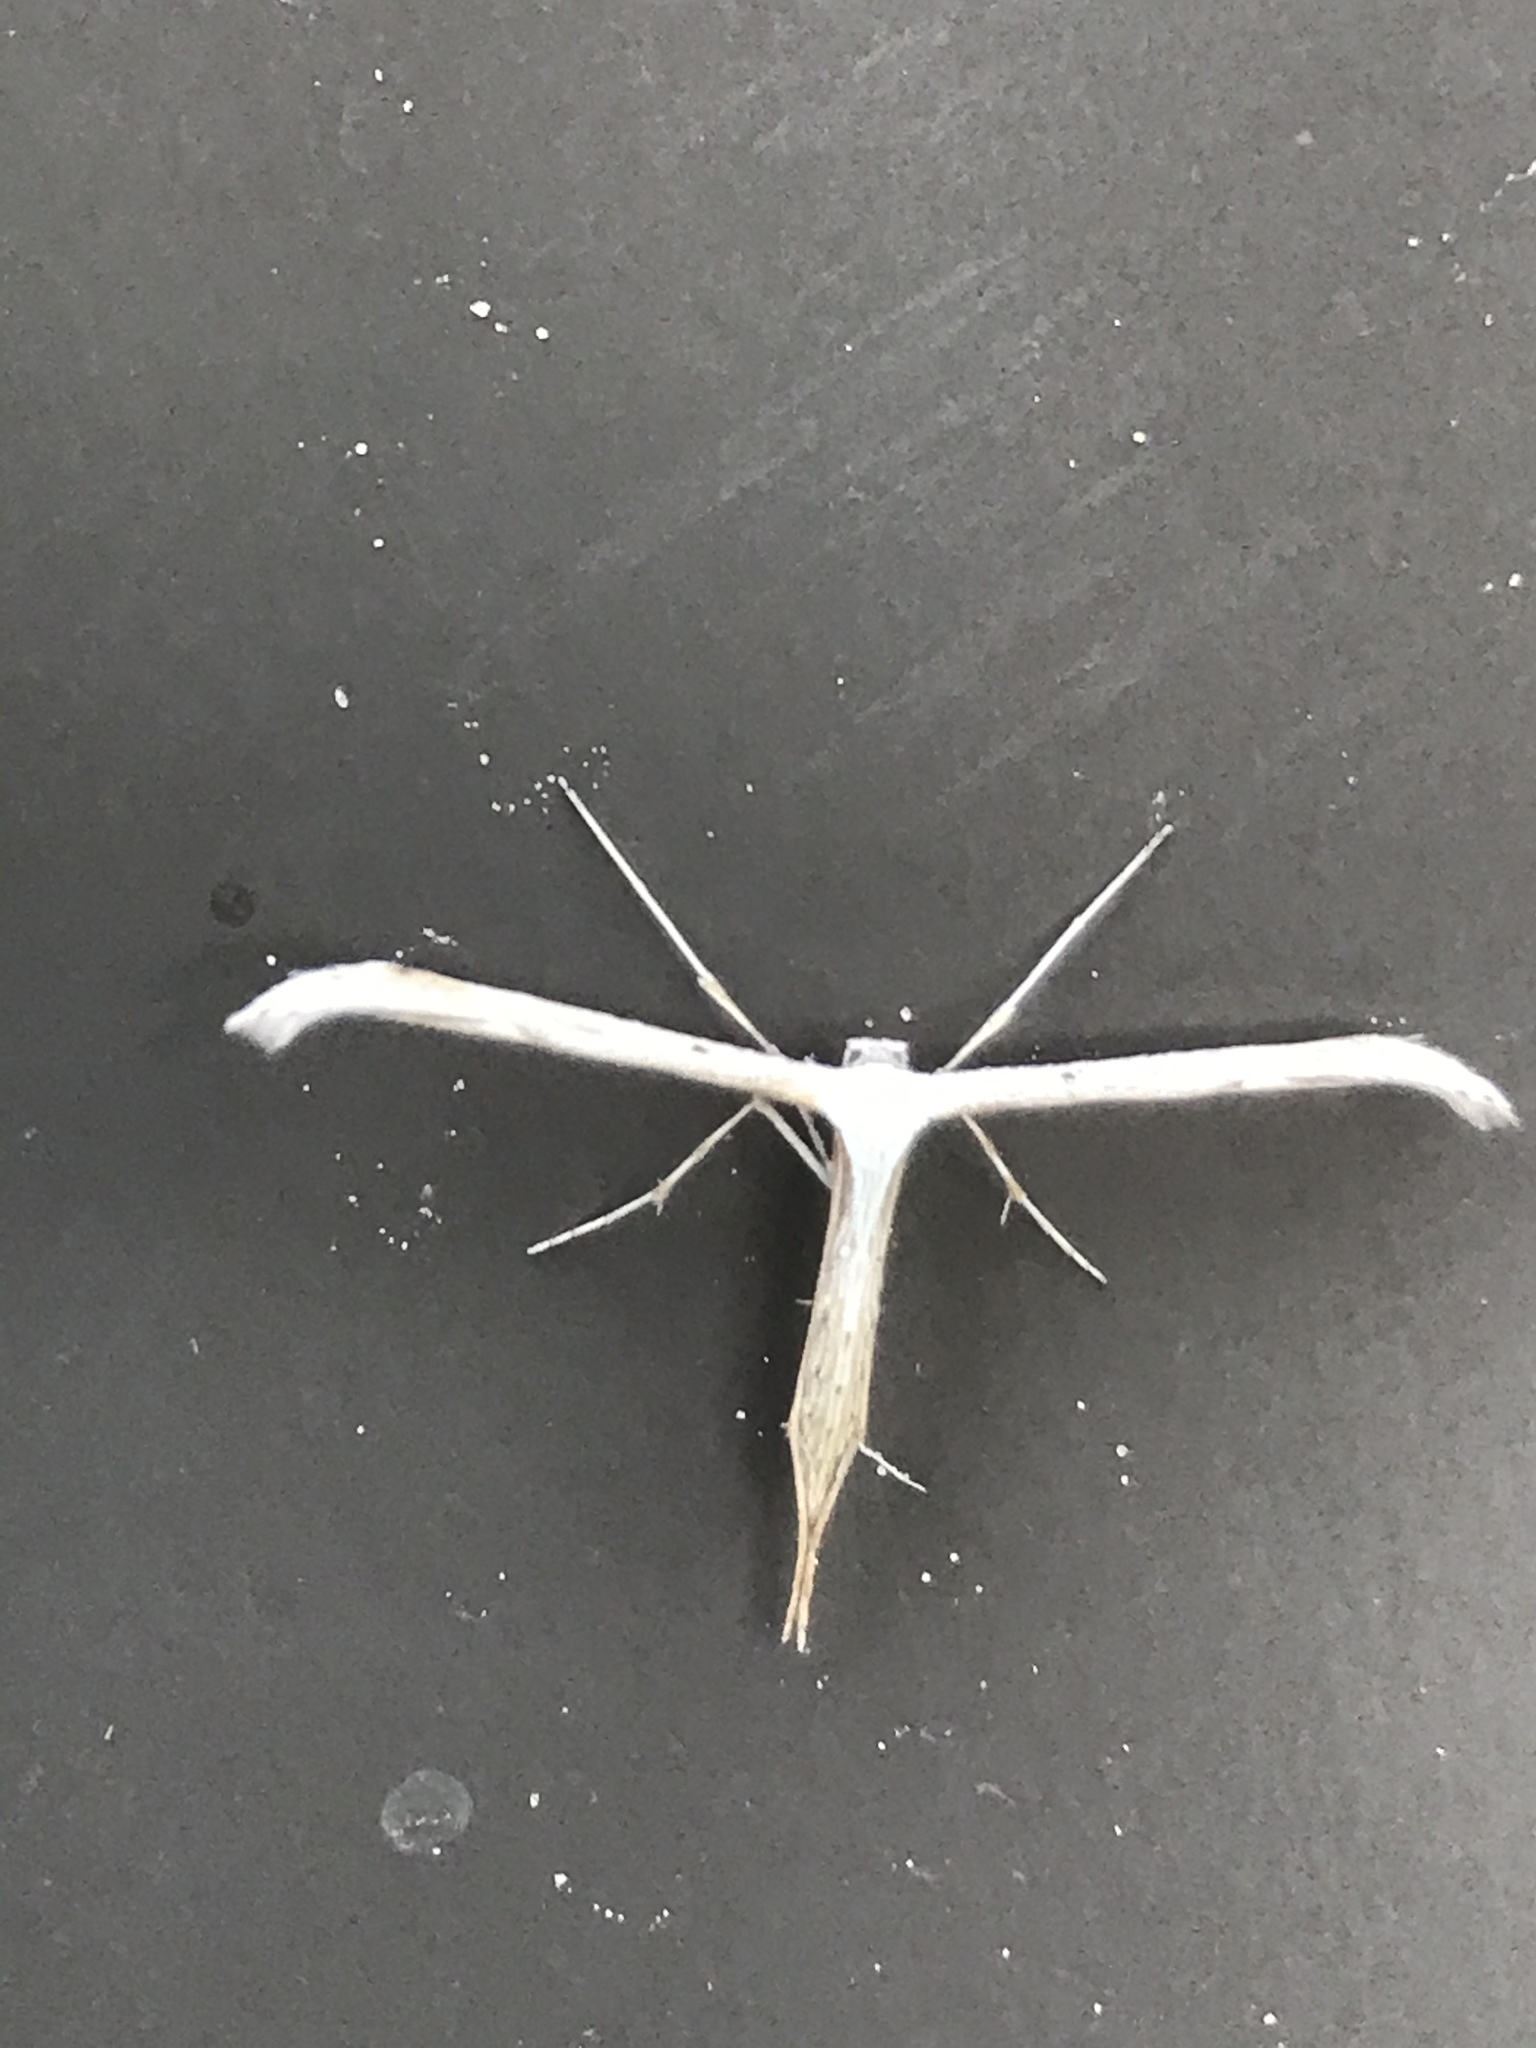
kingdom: Animalia
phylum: Arthropoda
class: Insecta
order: Lepidoptera
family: Pterophoridae
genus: Emmelina
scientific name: Emmelina monodactyla
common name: Common plume
